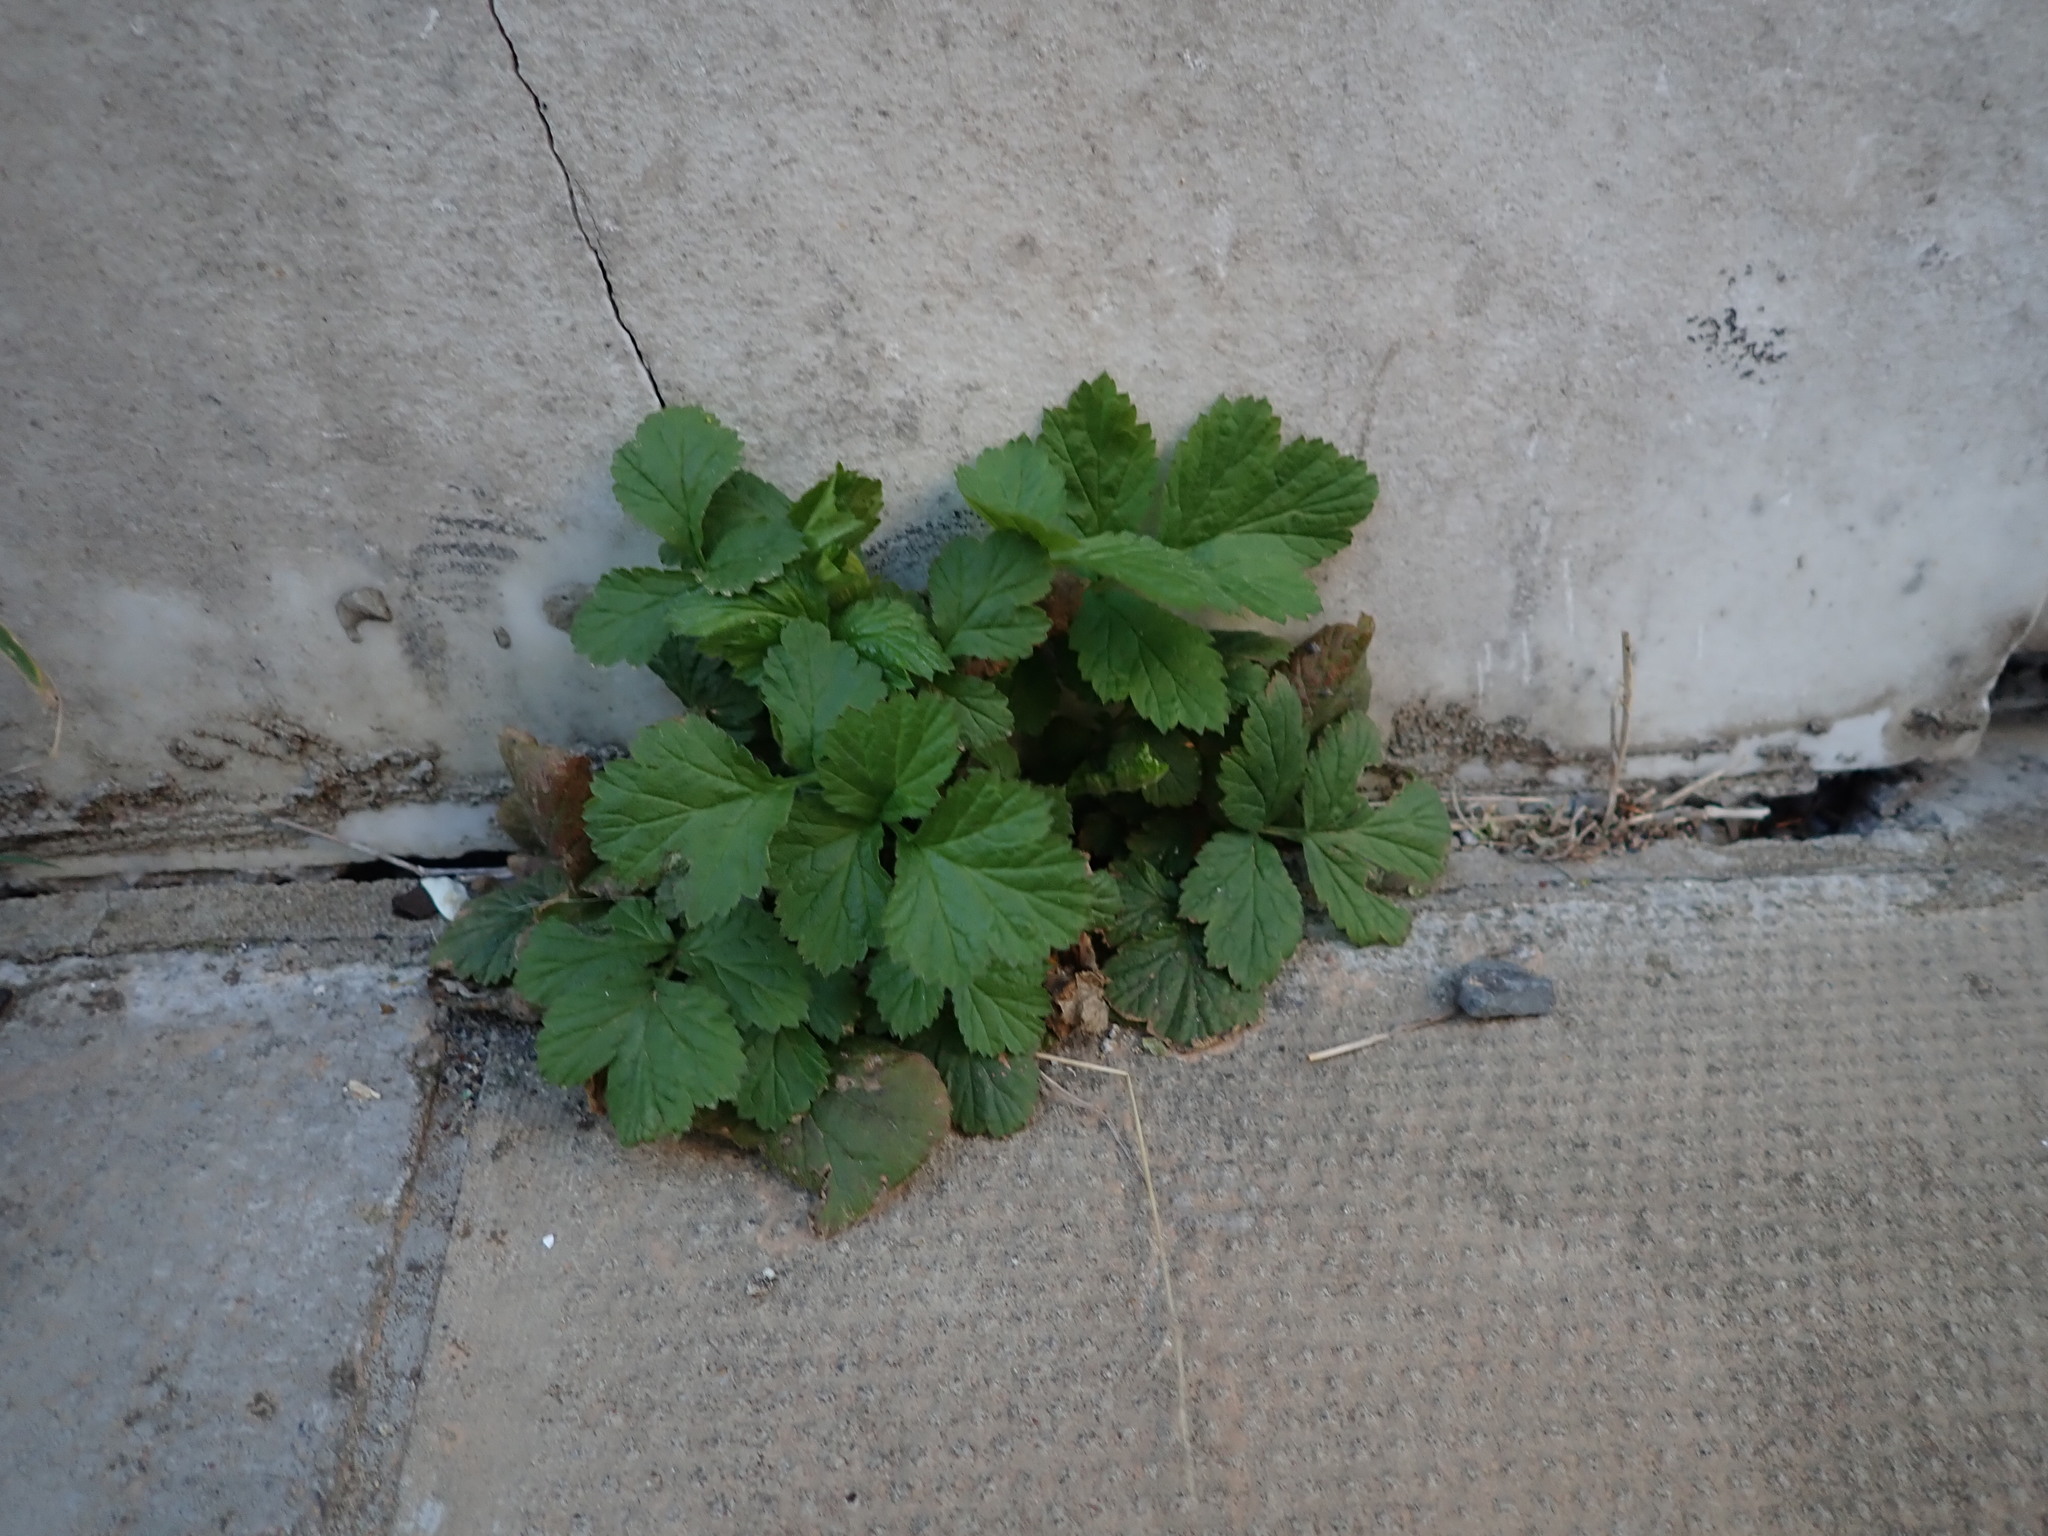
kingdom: Plantae
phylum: Tracheophyta
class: Magnoliopsida
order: Rosales
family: Rosaceae
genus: Geum
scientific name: Geum urbanum
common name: Wood avens
